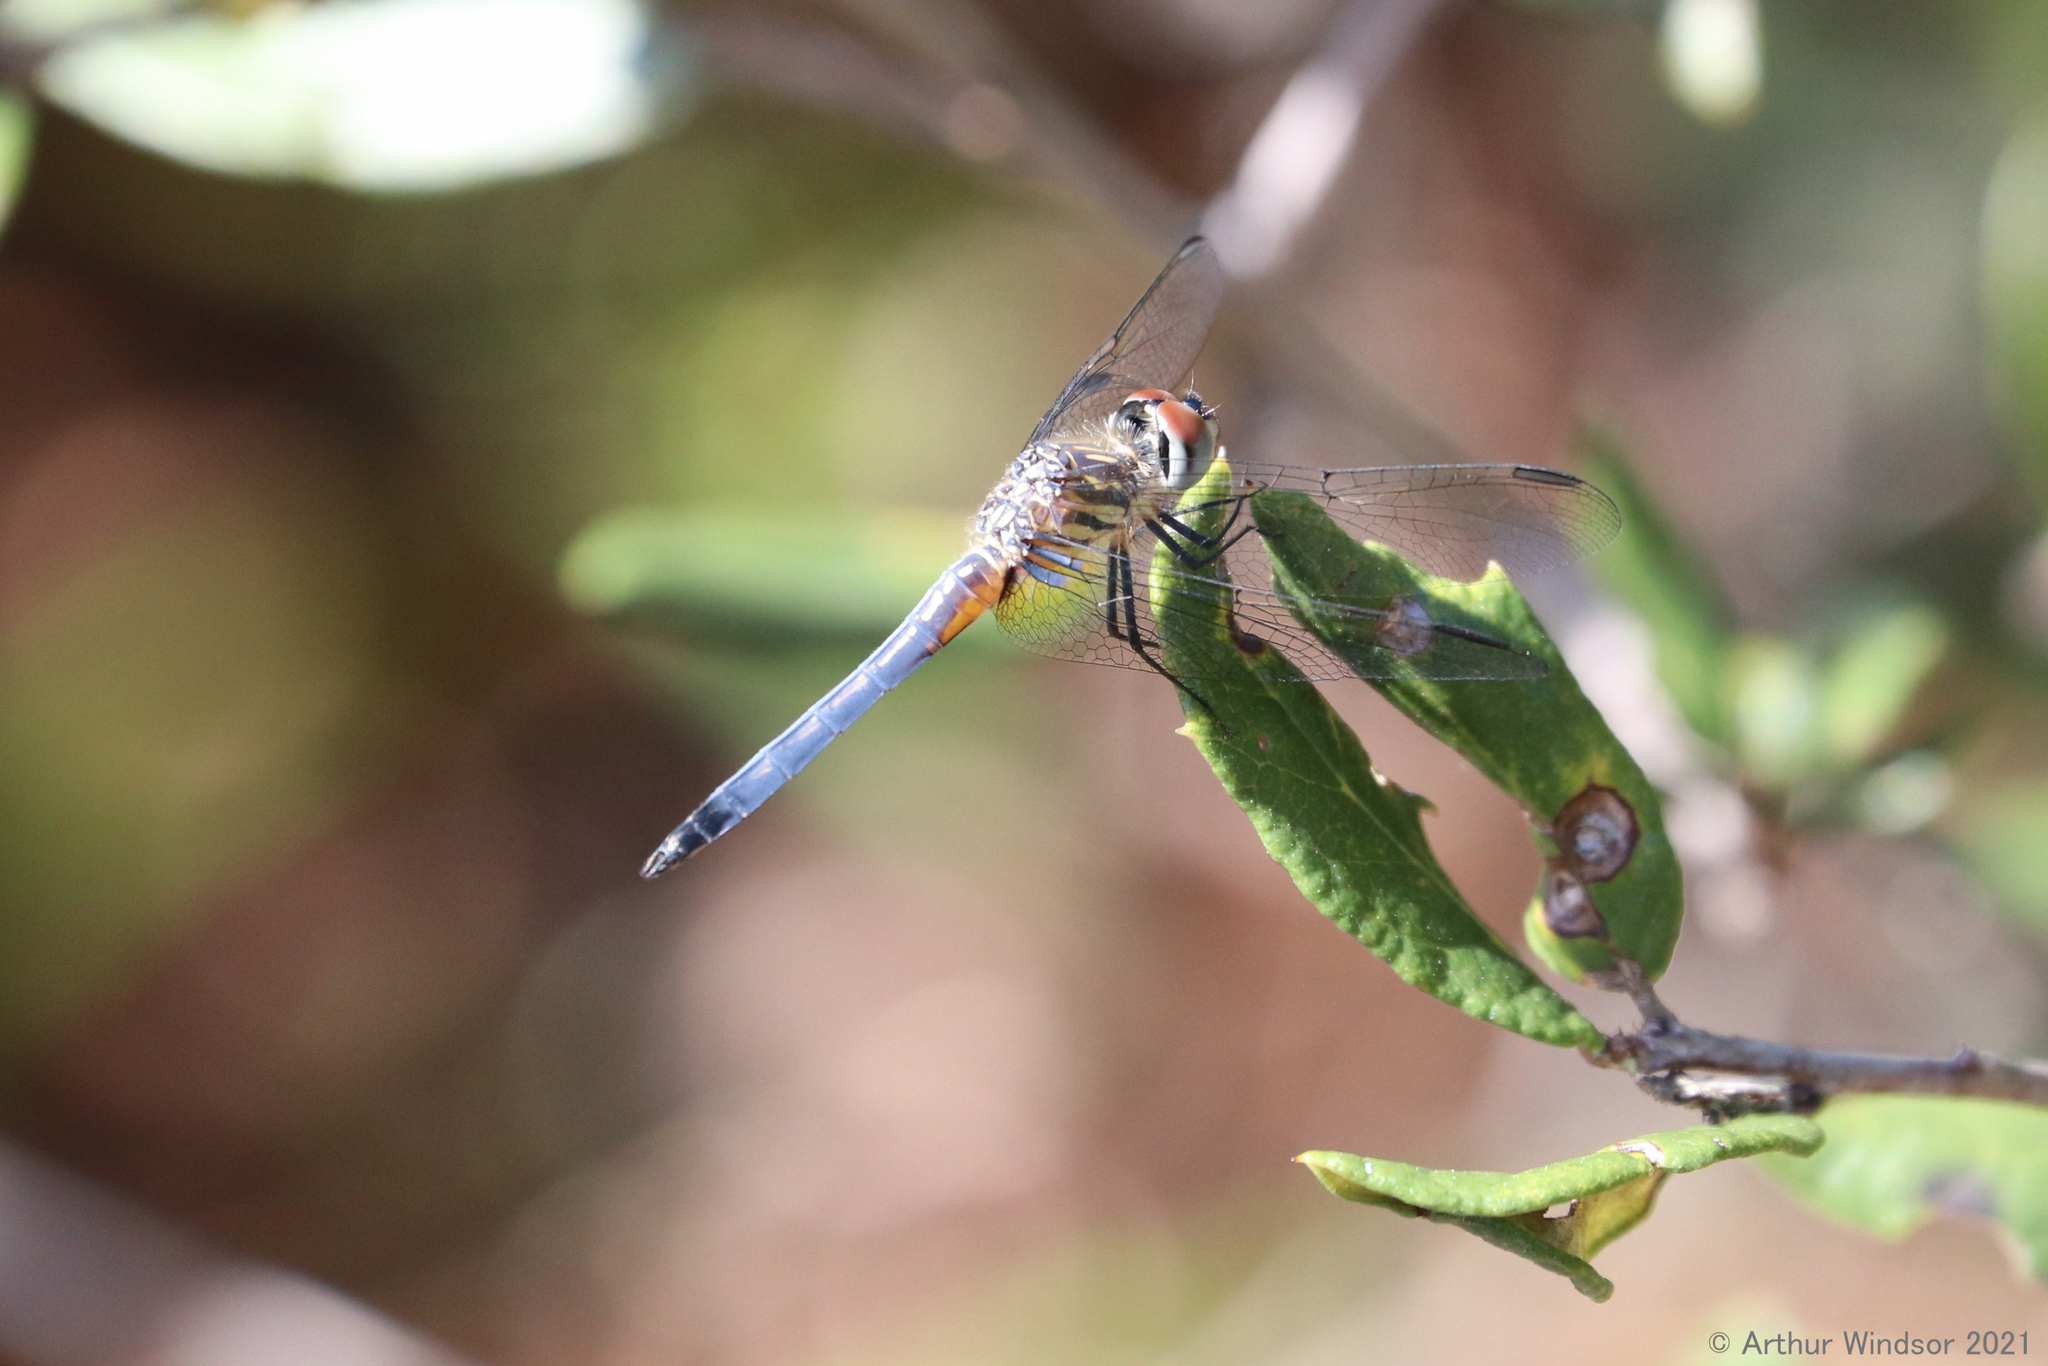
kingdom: Animalia
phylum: Arthropoda
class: Insecta
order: Odonata
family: Libellulidae
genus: Pachydiplax
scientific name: Pachydiplax longipennis
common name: Blue dasher
